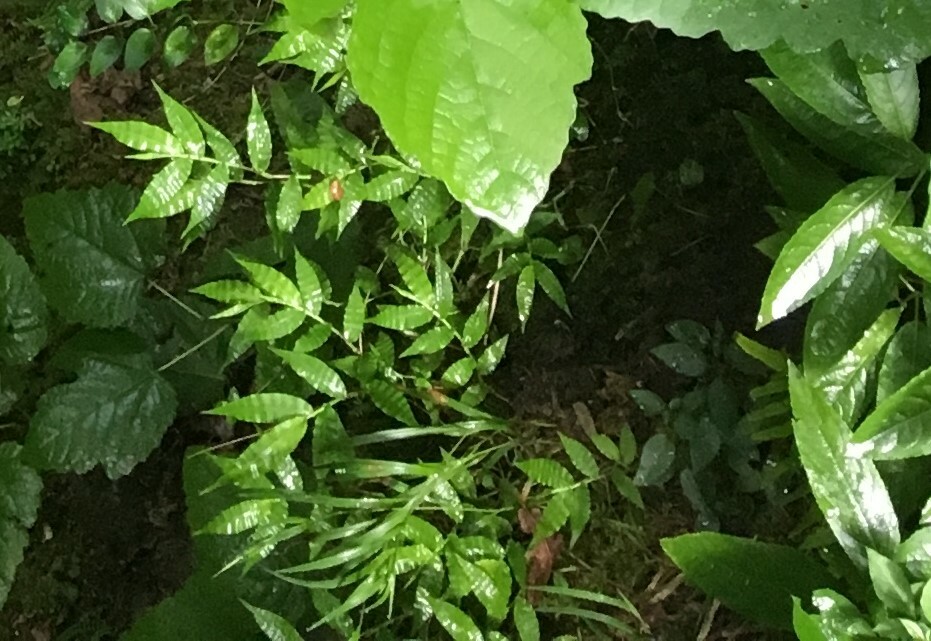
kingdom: Plantae
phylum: Tracheophyta
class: Liliopsida
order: Poales
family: Poaceae
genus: Oplismenus
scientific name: Oplismenus undulatifolius
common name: Wavyleaf basketgrass
